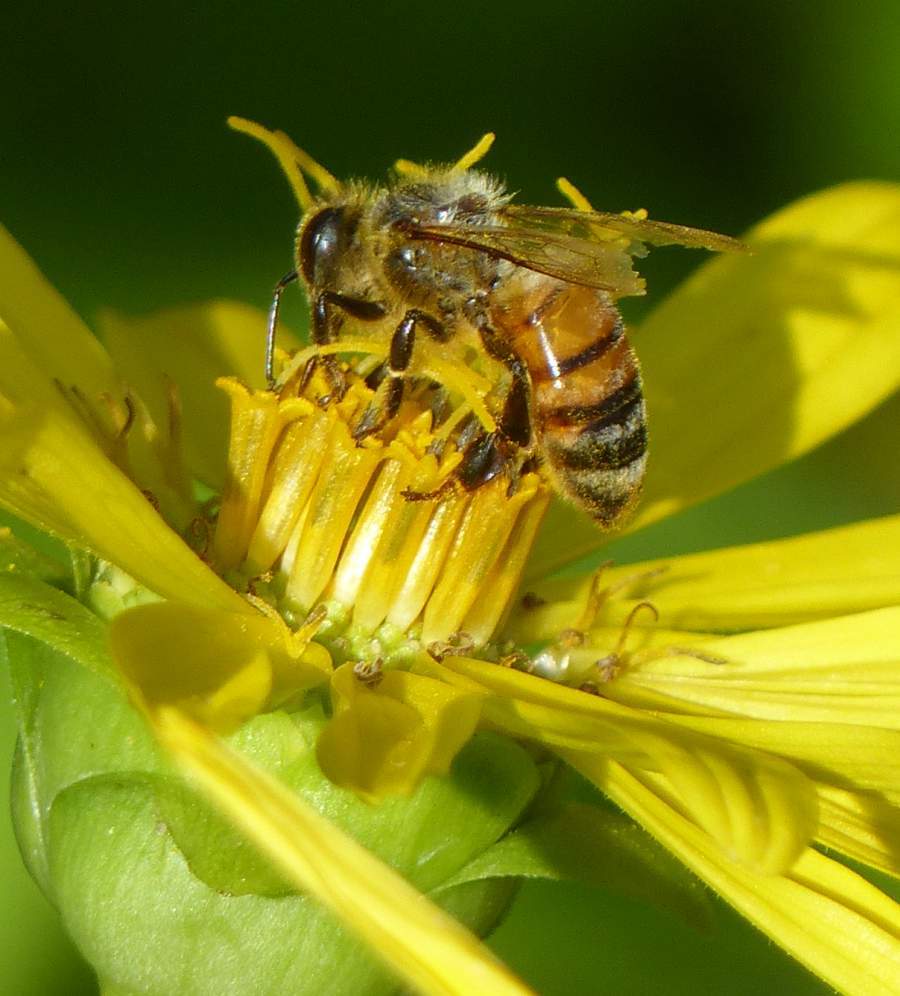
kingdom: Animalia
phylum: Arthropoda
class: Insecta
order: Hymenoptera
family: Apidae
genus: Apis
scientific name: Apis mellifera
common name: Honey bee
